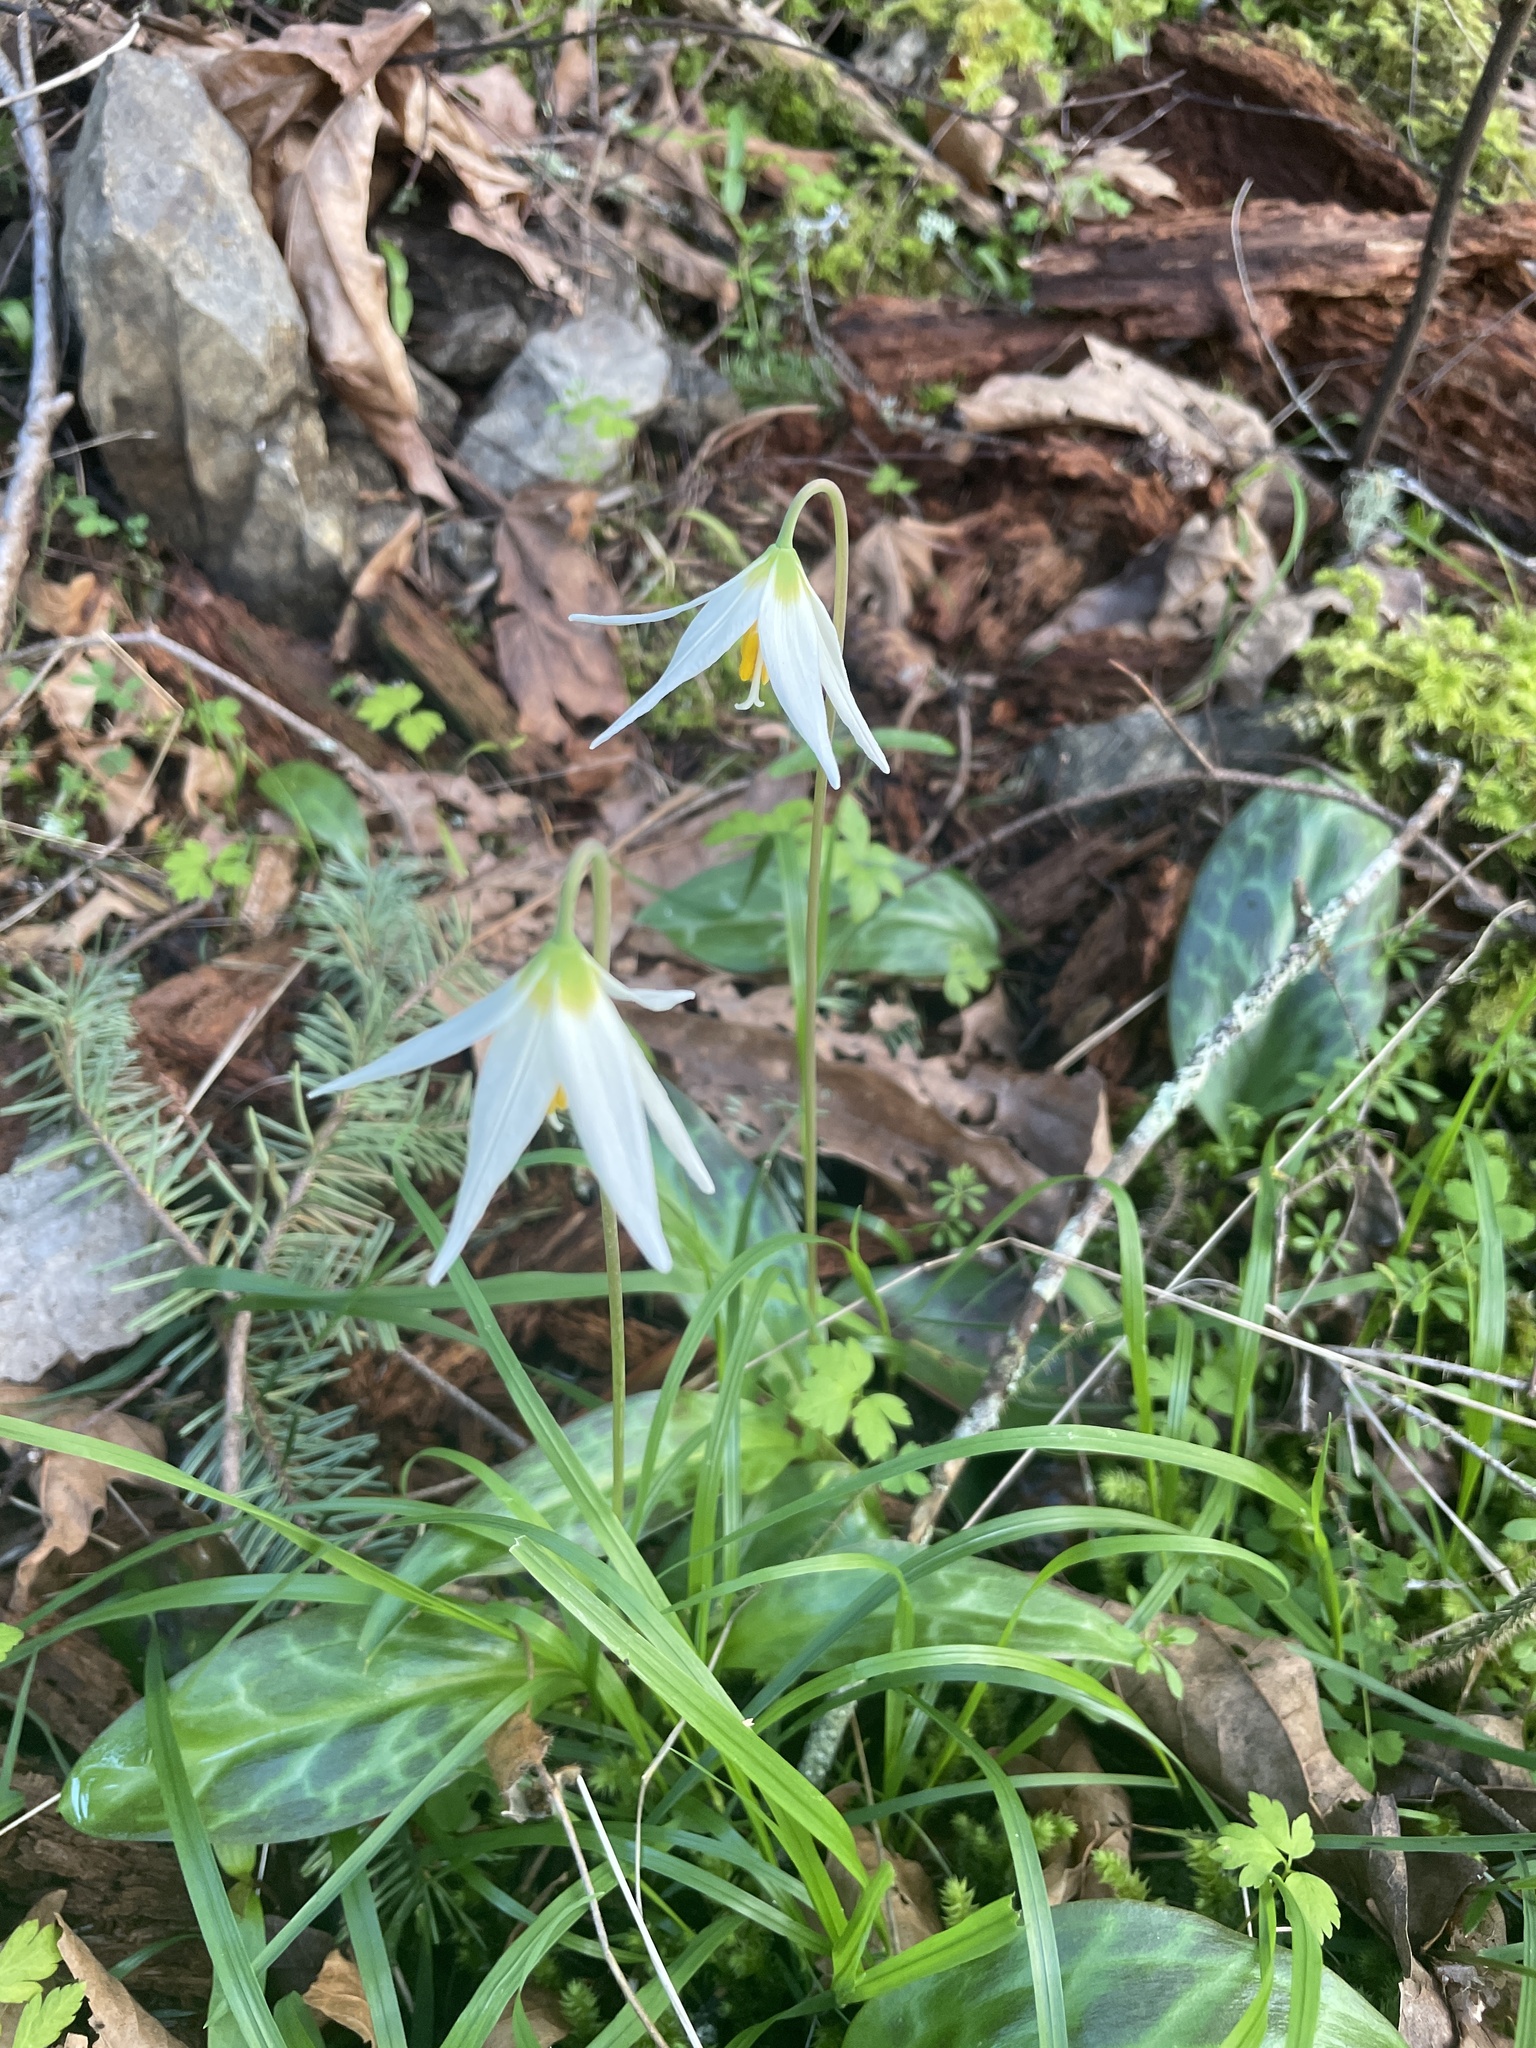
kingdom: Plantae
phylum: Tracheophyta
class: Liliopsida
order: Liliales
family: Liliaceae
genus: Erythronium
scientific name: Erythronium oregonum
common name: Giant adder's-tongue
